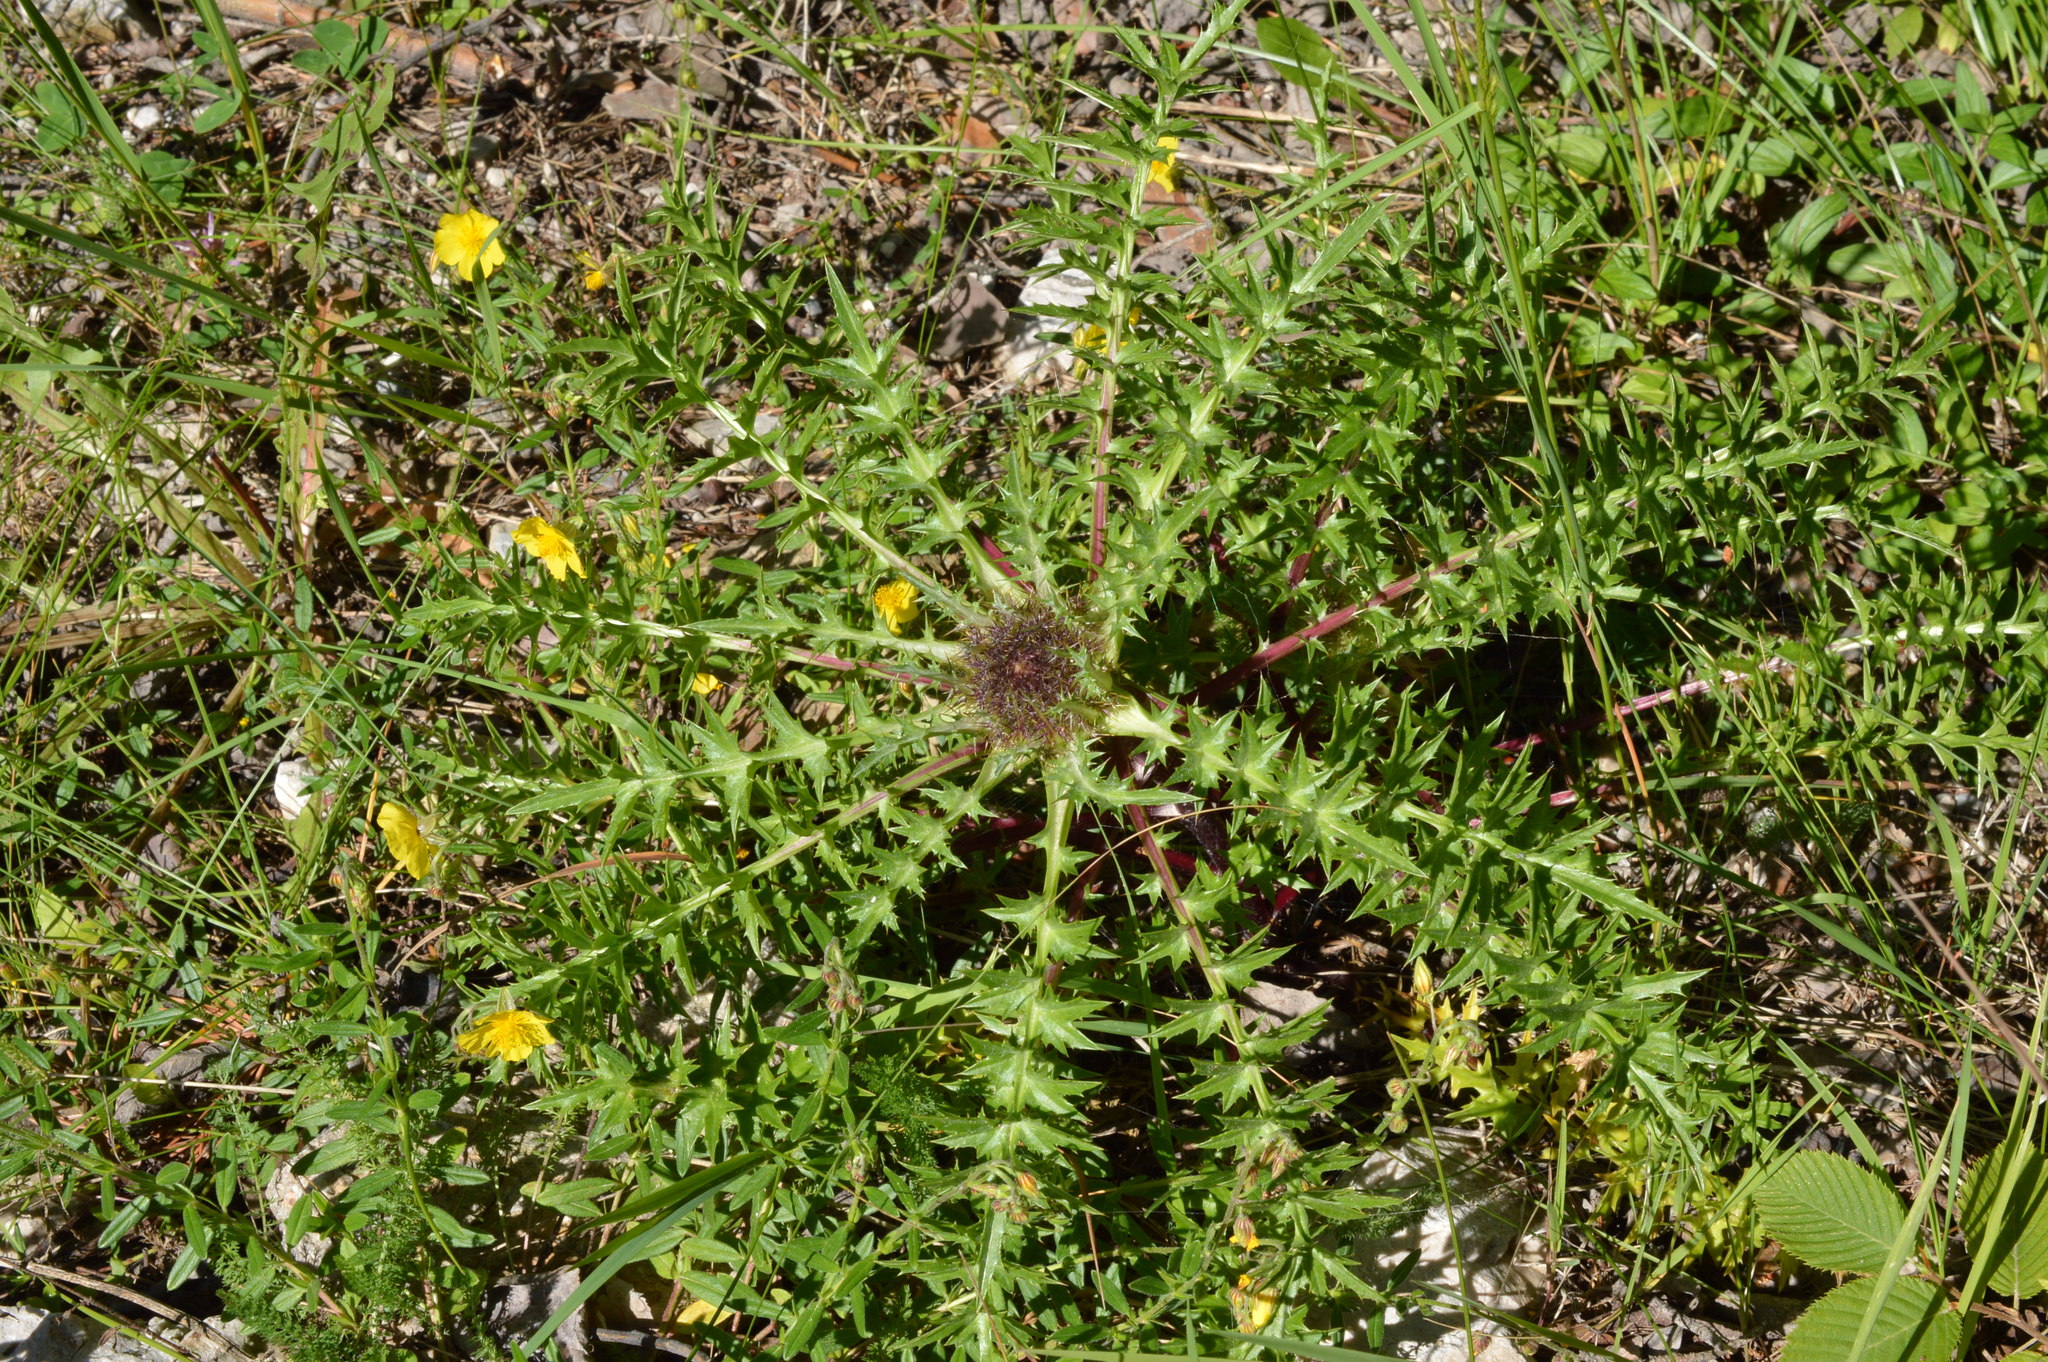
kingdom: Plantae
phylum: Tracheophyta
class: Magnoliopsida
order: Asterales
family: Asteraceae
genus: Carlina
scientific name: Carlina acaulis
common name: Stemless carline thistle
